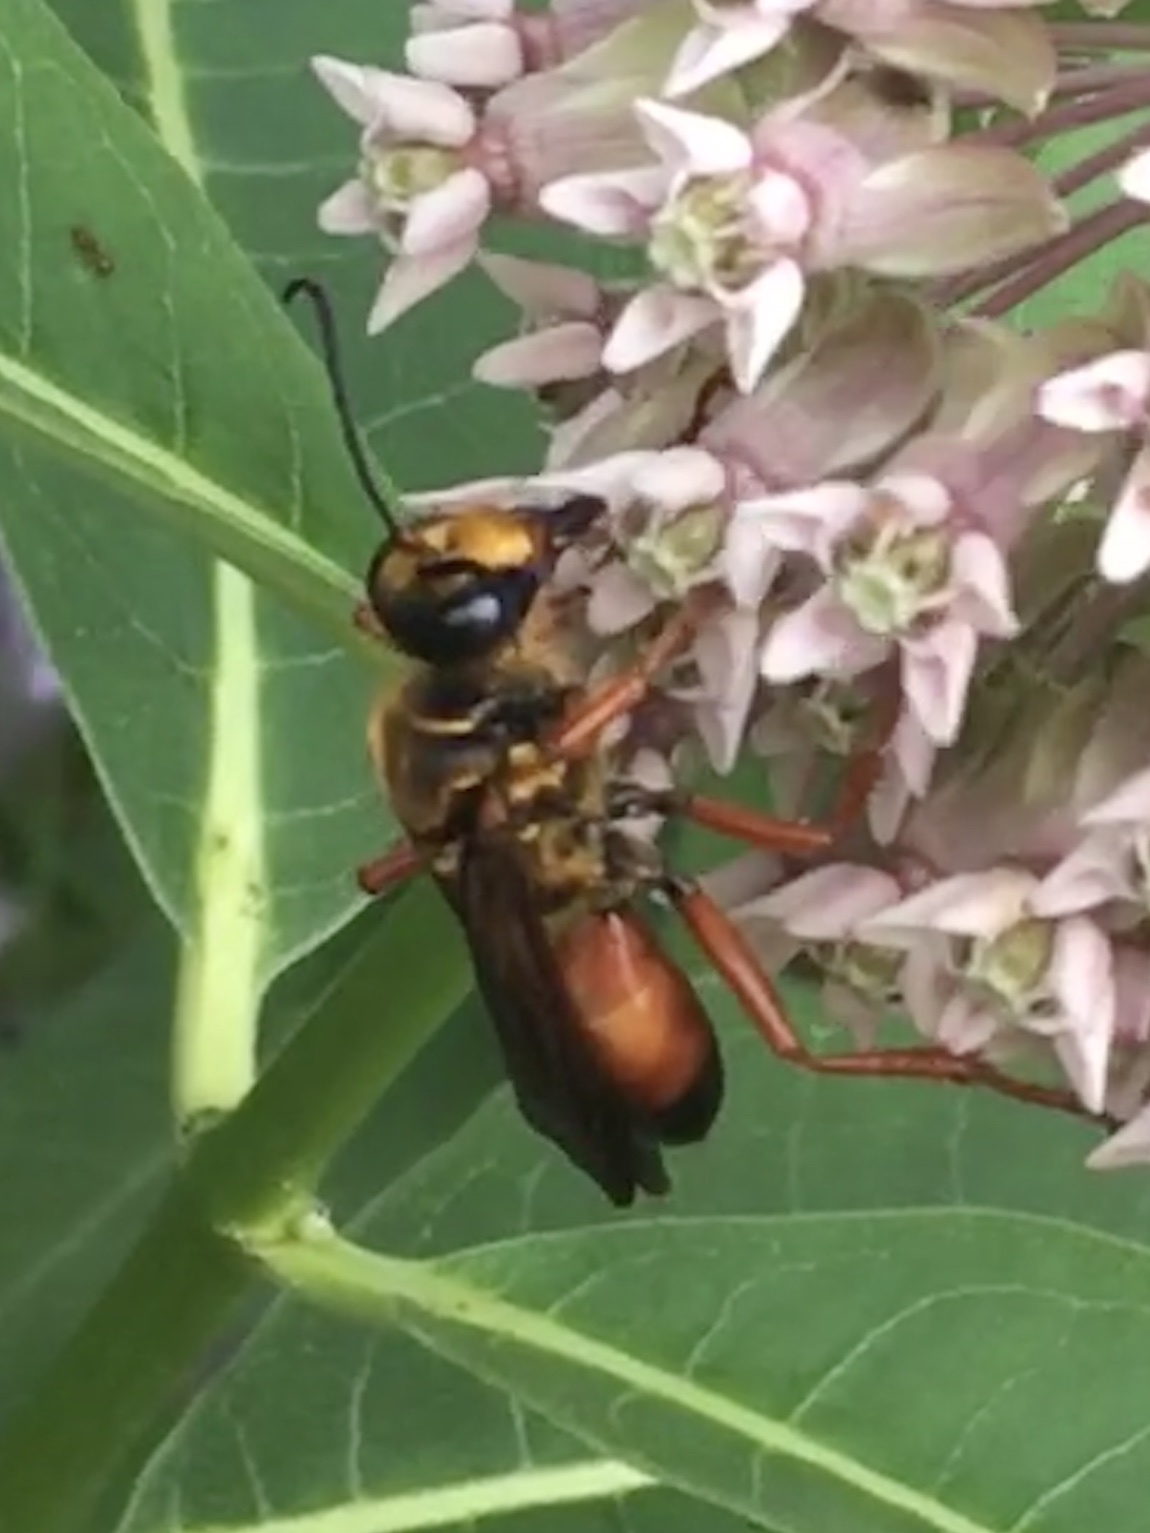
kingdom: Animalia
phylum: Arthropoda
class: Insecta
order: Hymenoptera
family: Sphecidae
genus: Sphex
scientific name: Sphex ichneumoneus
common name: Great golden digger wasp
